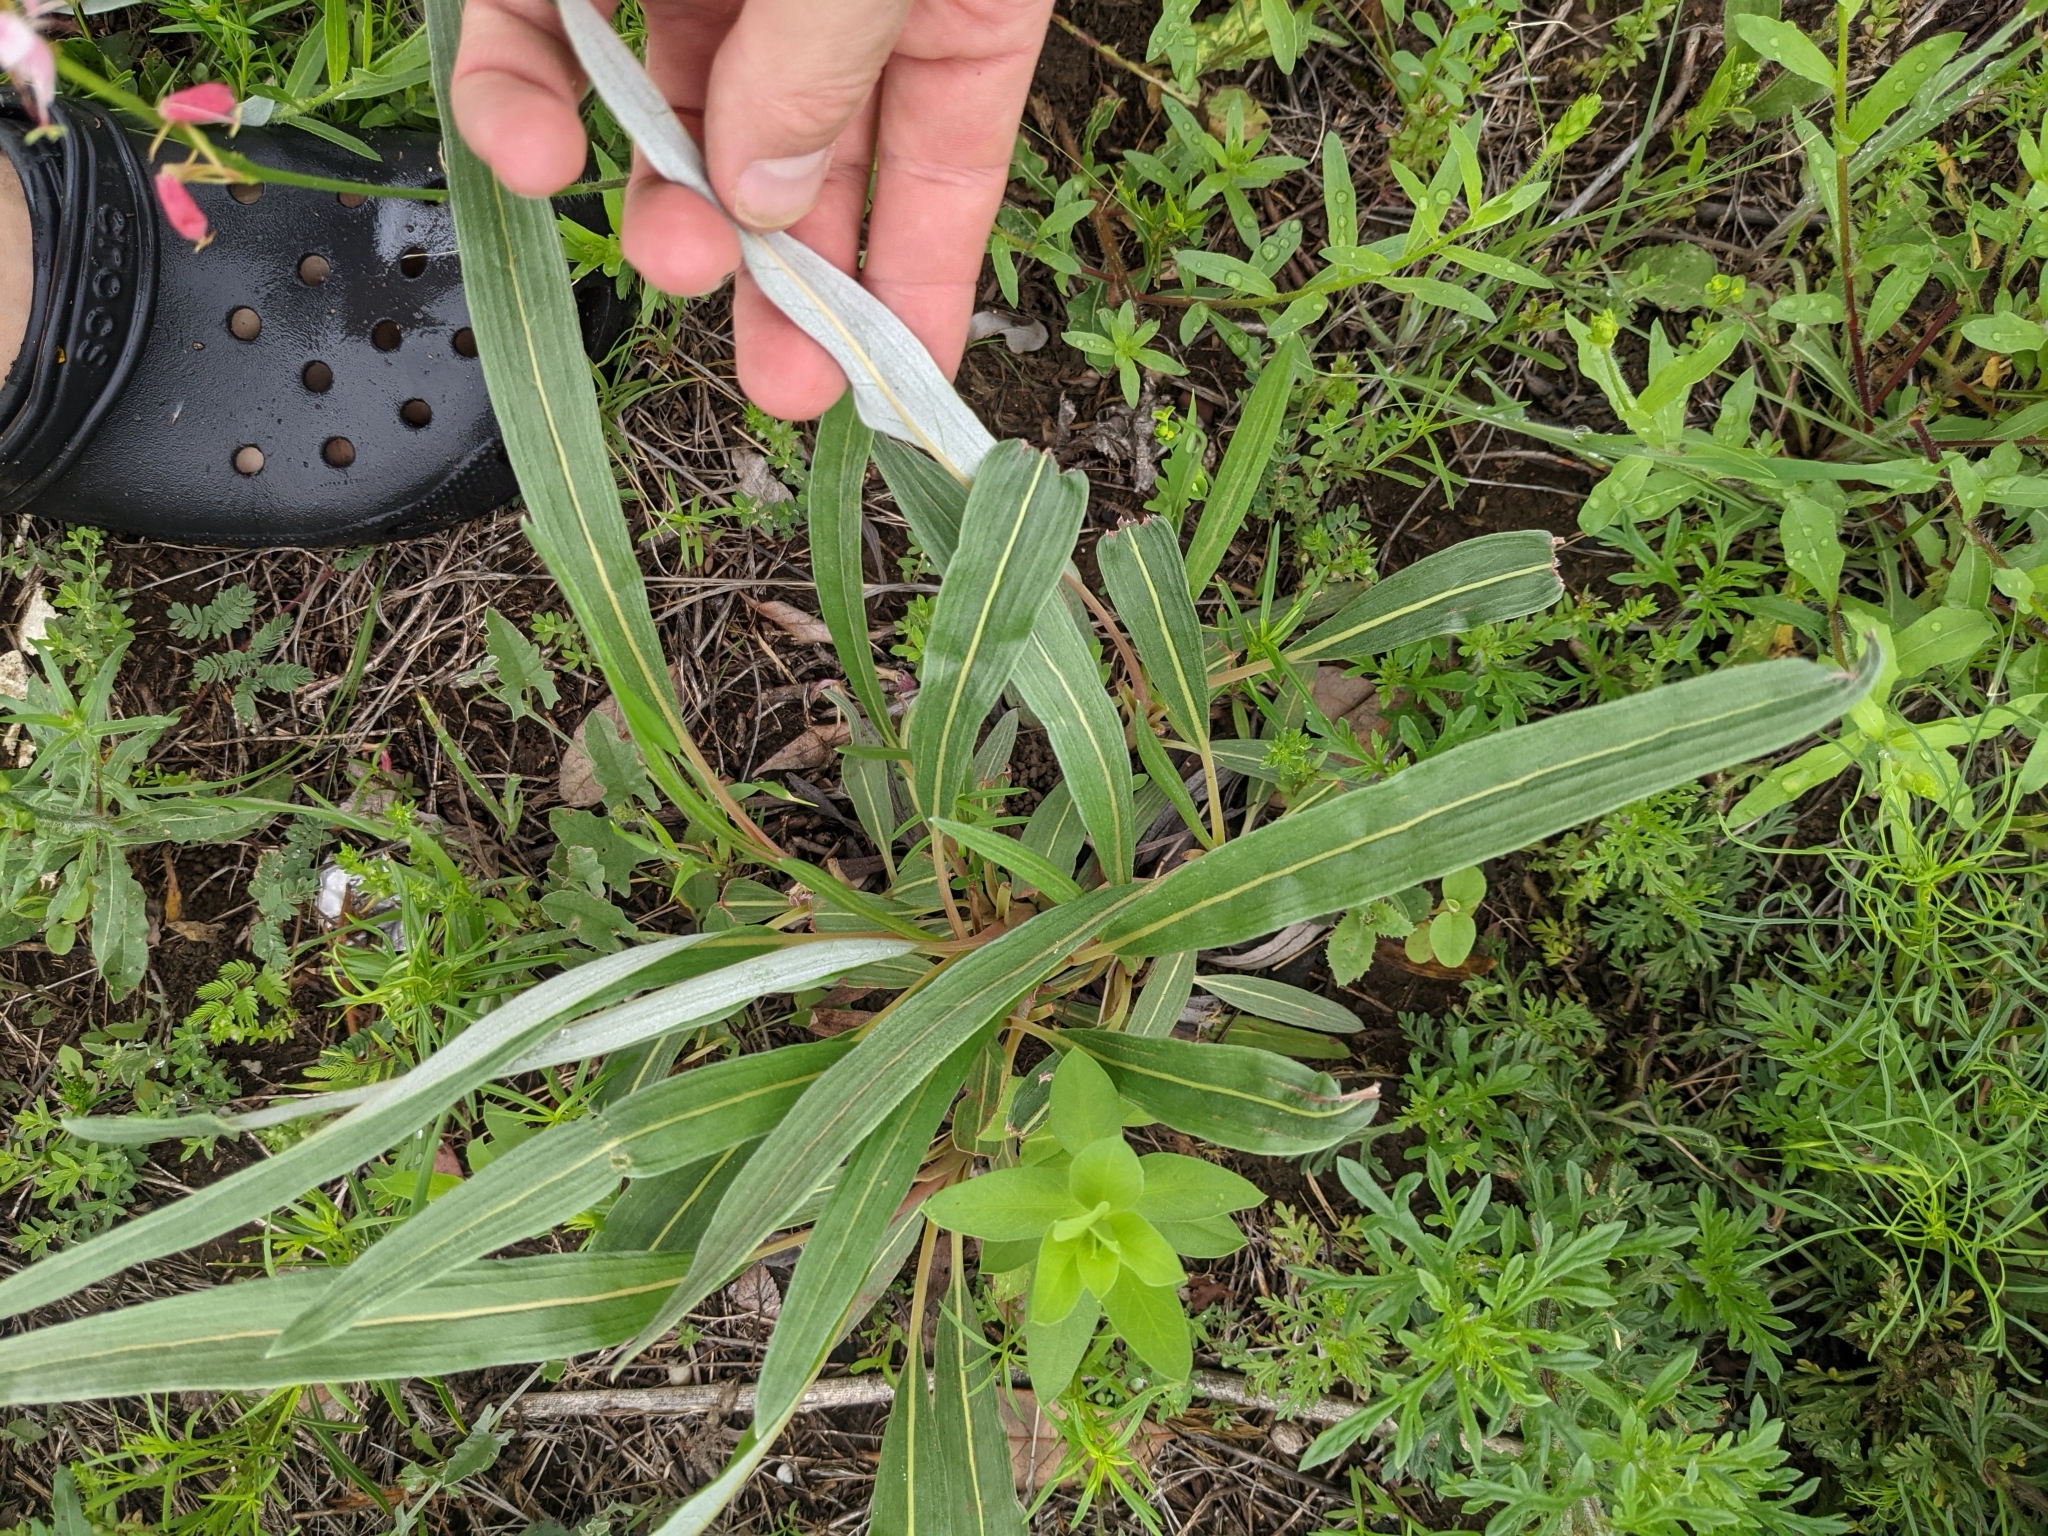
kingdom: Plantae
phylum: Tracheophyta
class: Magnoliopsida
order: Caryophyllales
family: Polygonaceae
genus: Eriogonum
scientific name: Eriogonum longifolium
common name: Longleaf wild buckwheat
